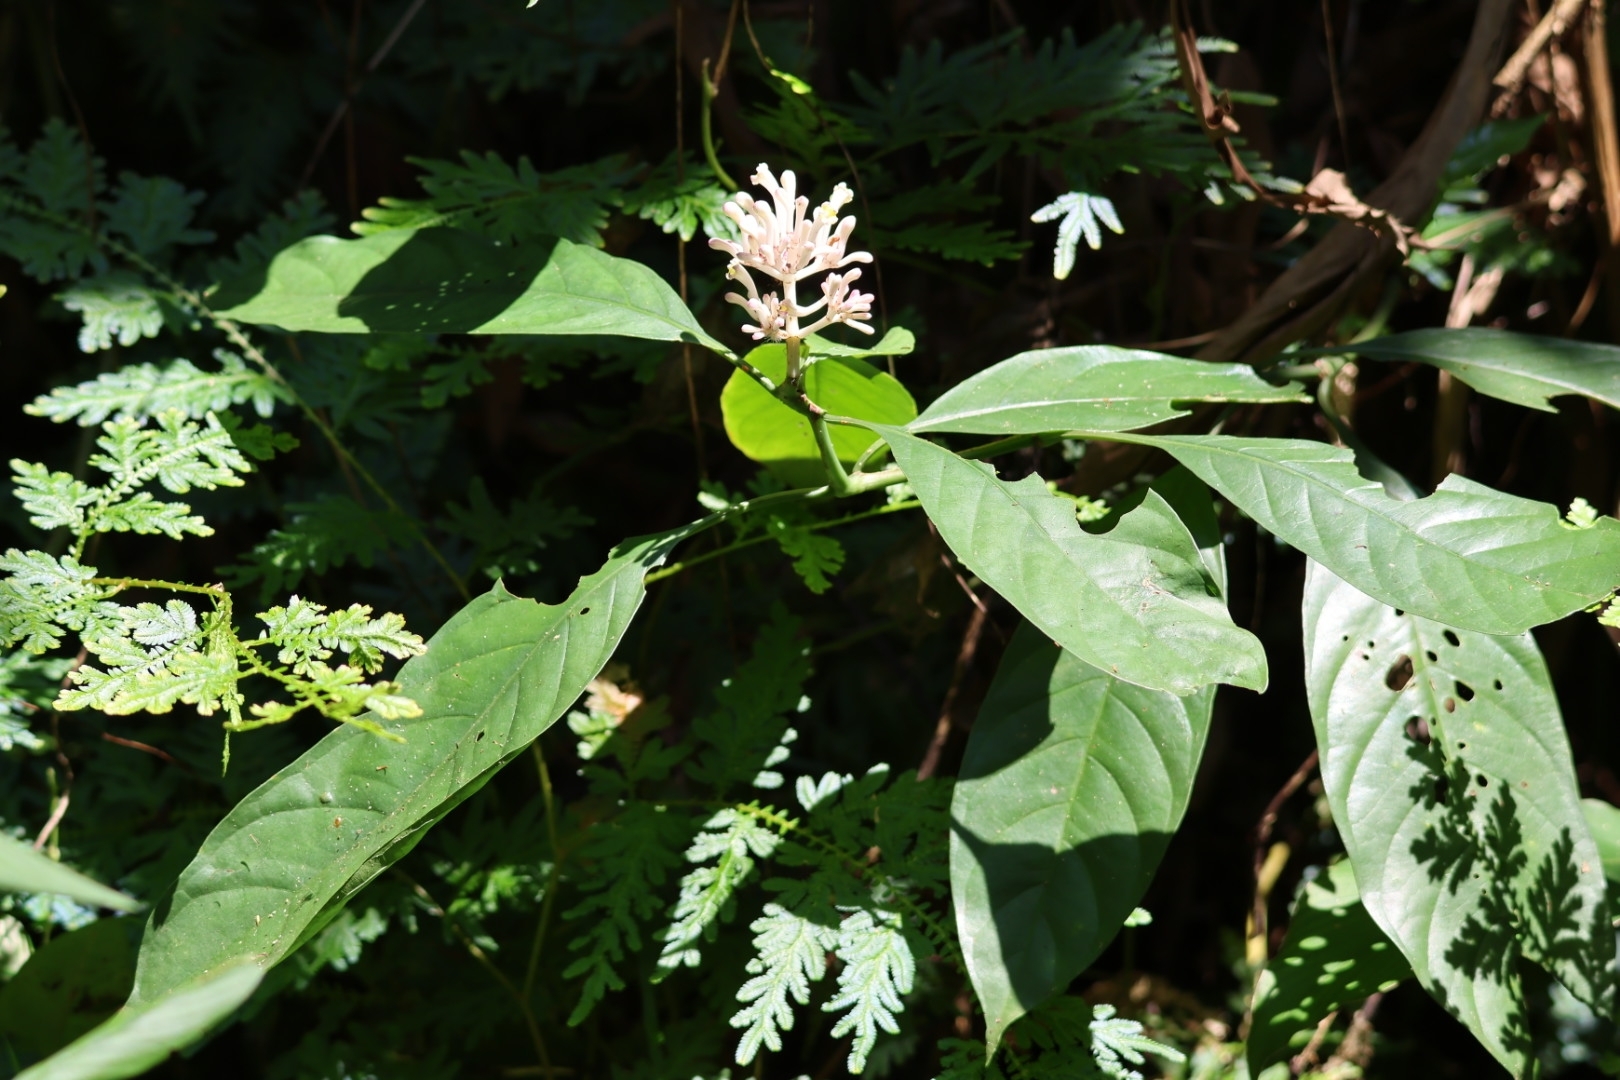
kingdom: Plantae
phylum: Tracheophyta
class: Magnoliopsida
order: Gentianales
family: Rubiaceae
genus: Chassalia
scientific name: Chassalia curviflora
